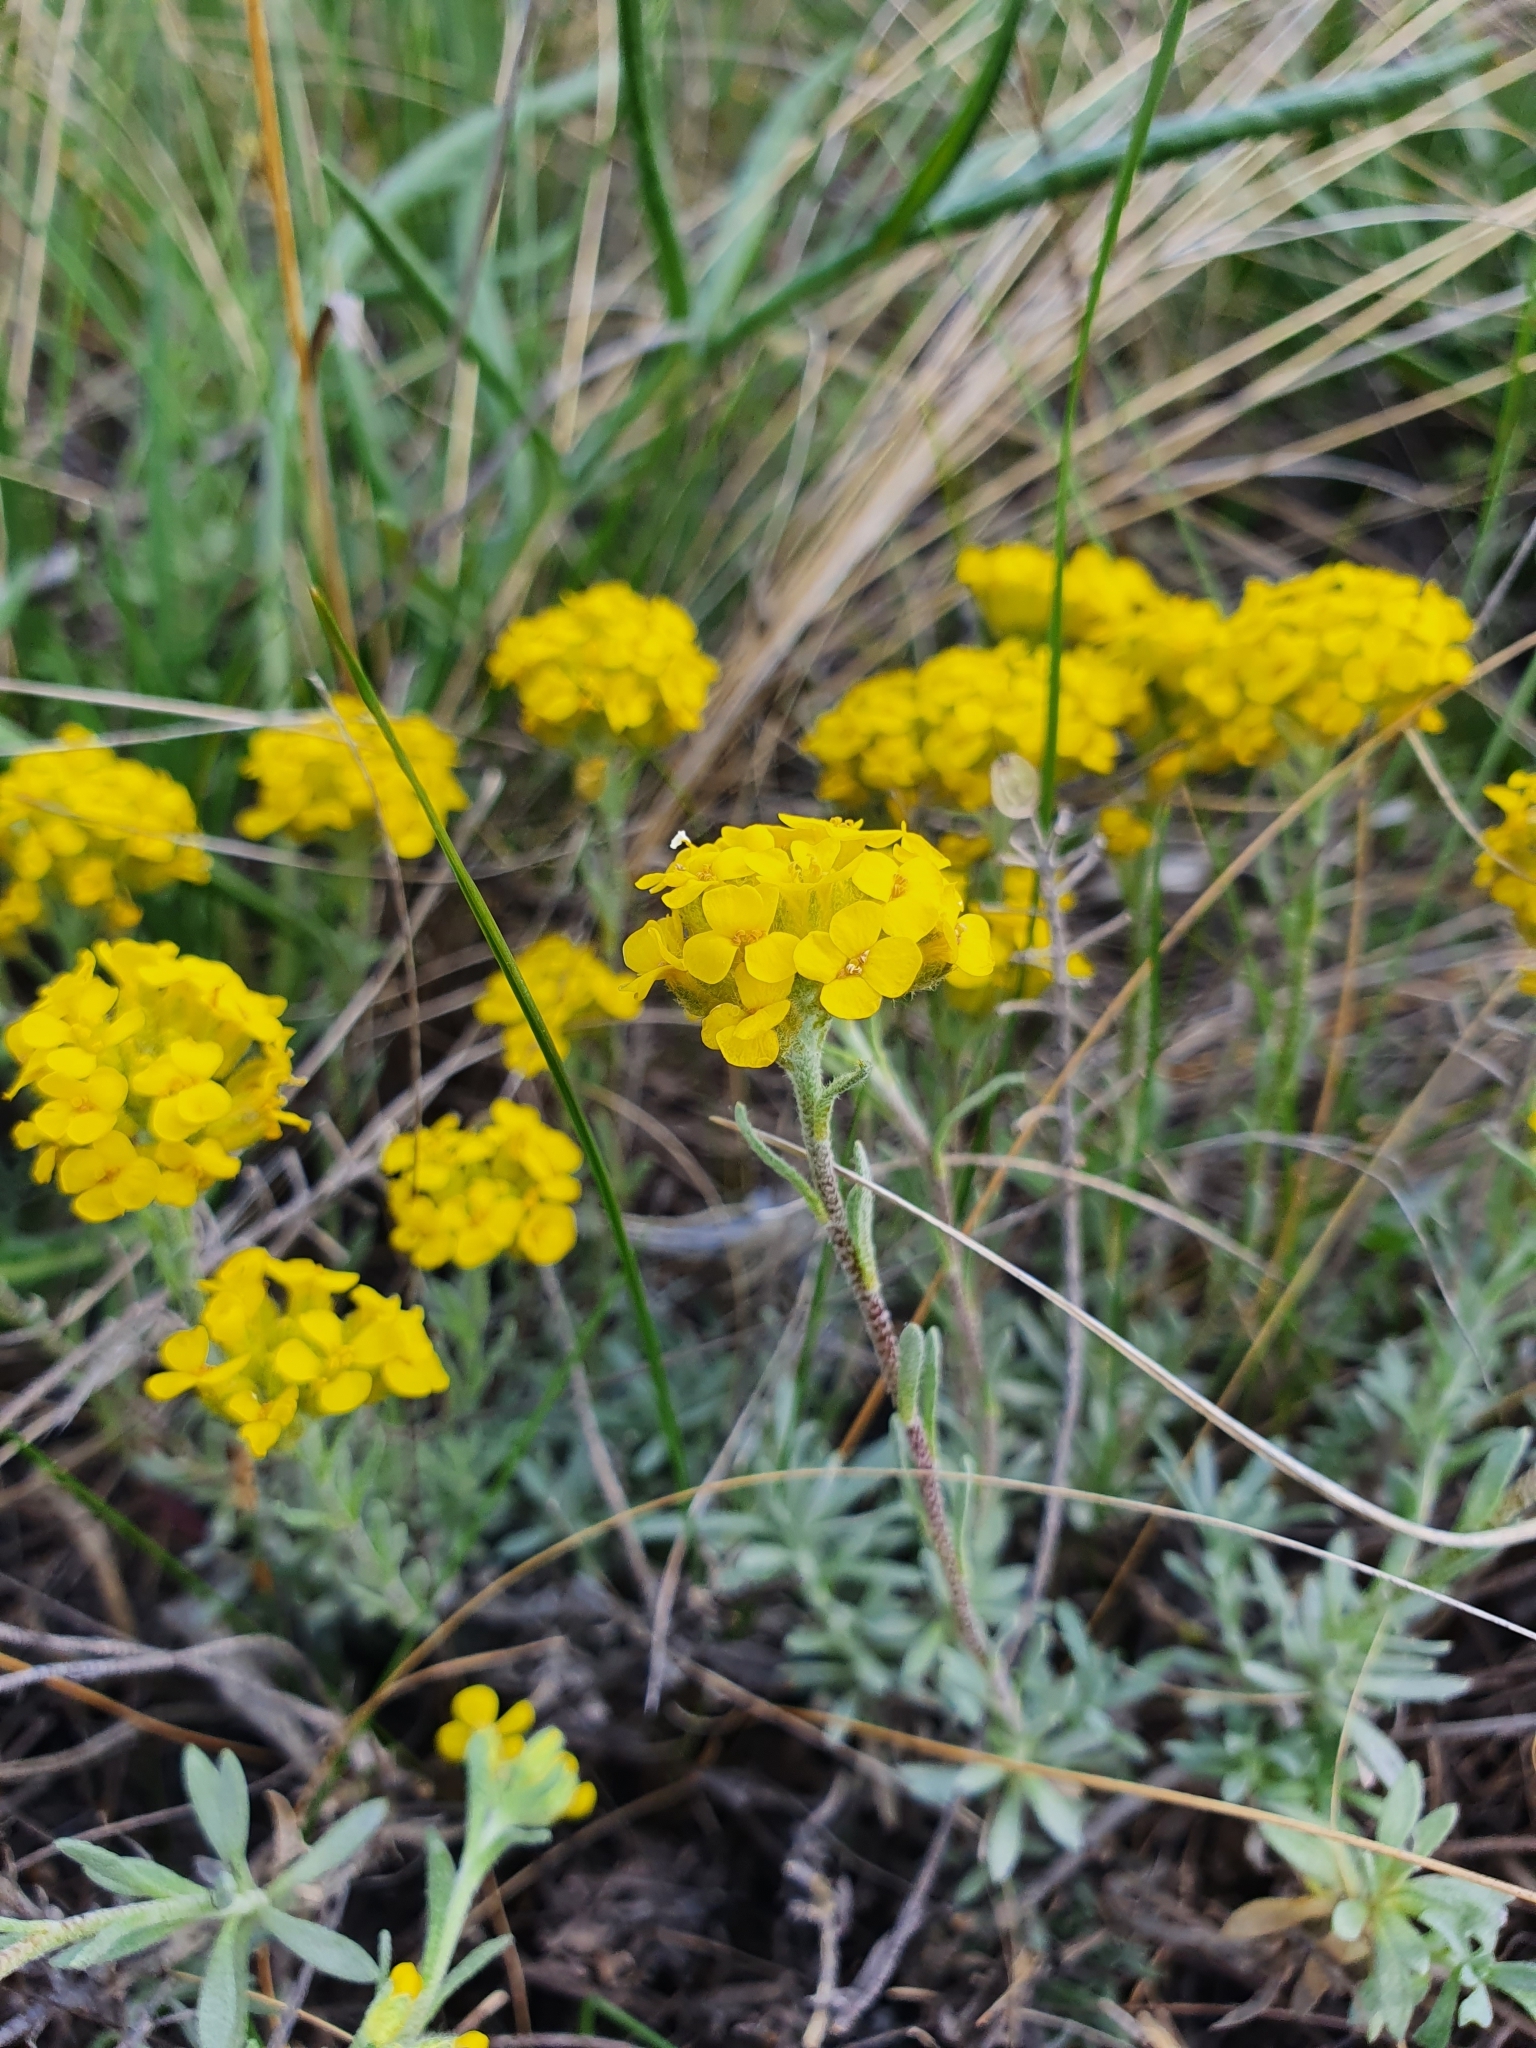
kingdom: Plantae
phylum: Tracheophyta
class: Magnoliopsida
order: Brassicales
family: Brassicaceae
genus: Alyssum
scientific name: Alyssum lenense
